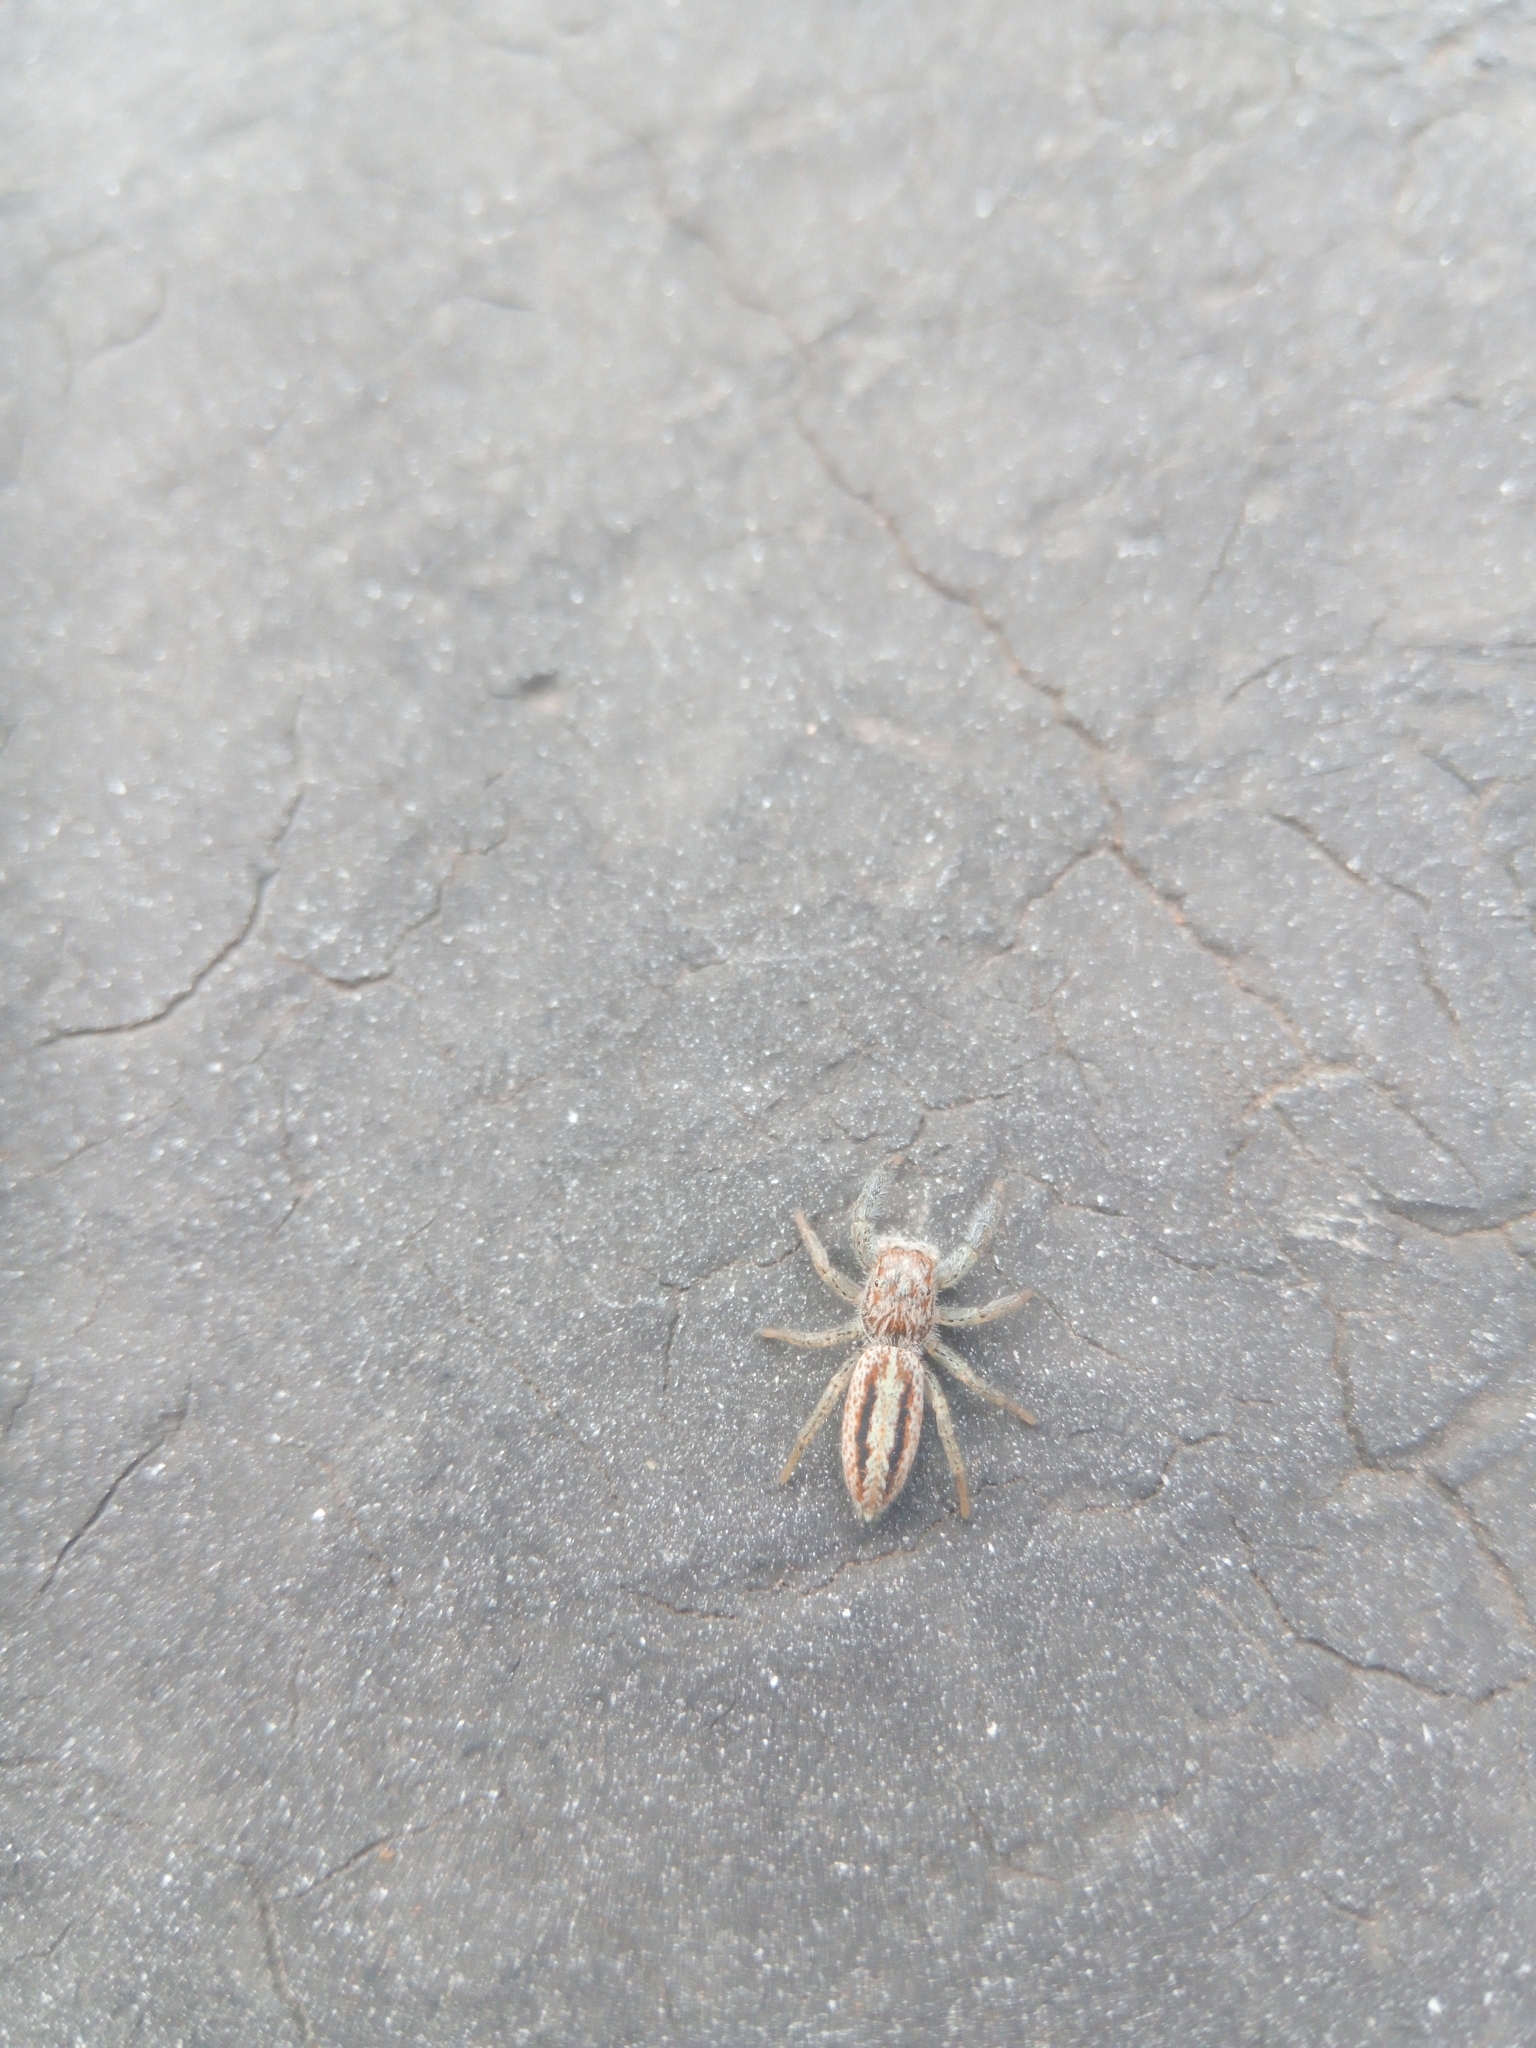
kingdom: Animalia
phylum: Arthropoda
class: Arachnida
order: Araneae
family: Salticidae
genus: Marpissa
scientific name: Marpissa radiata
